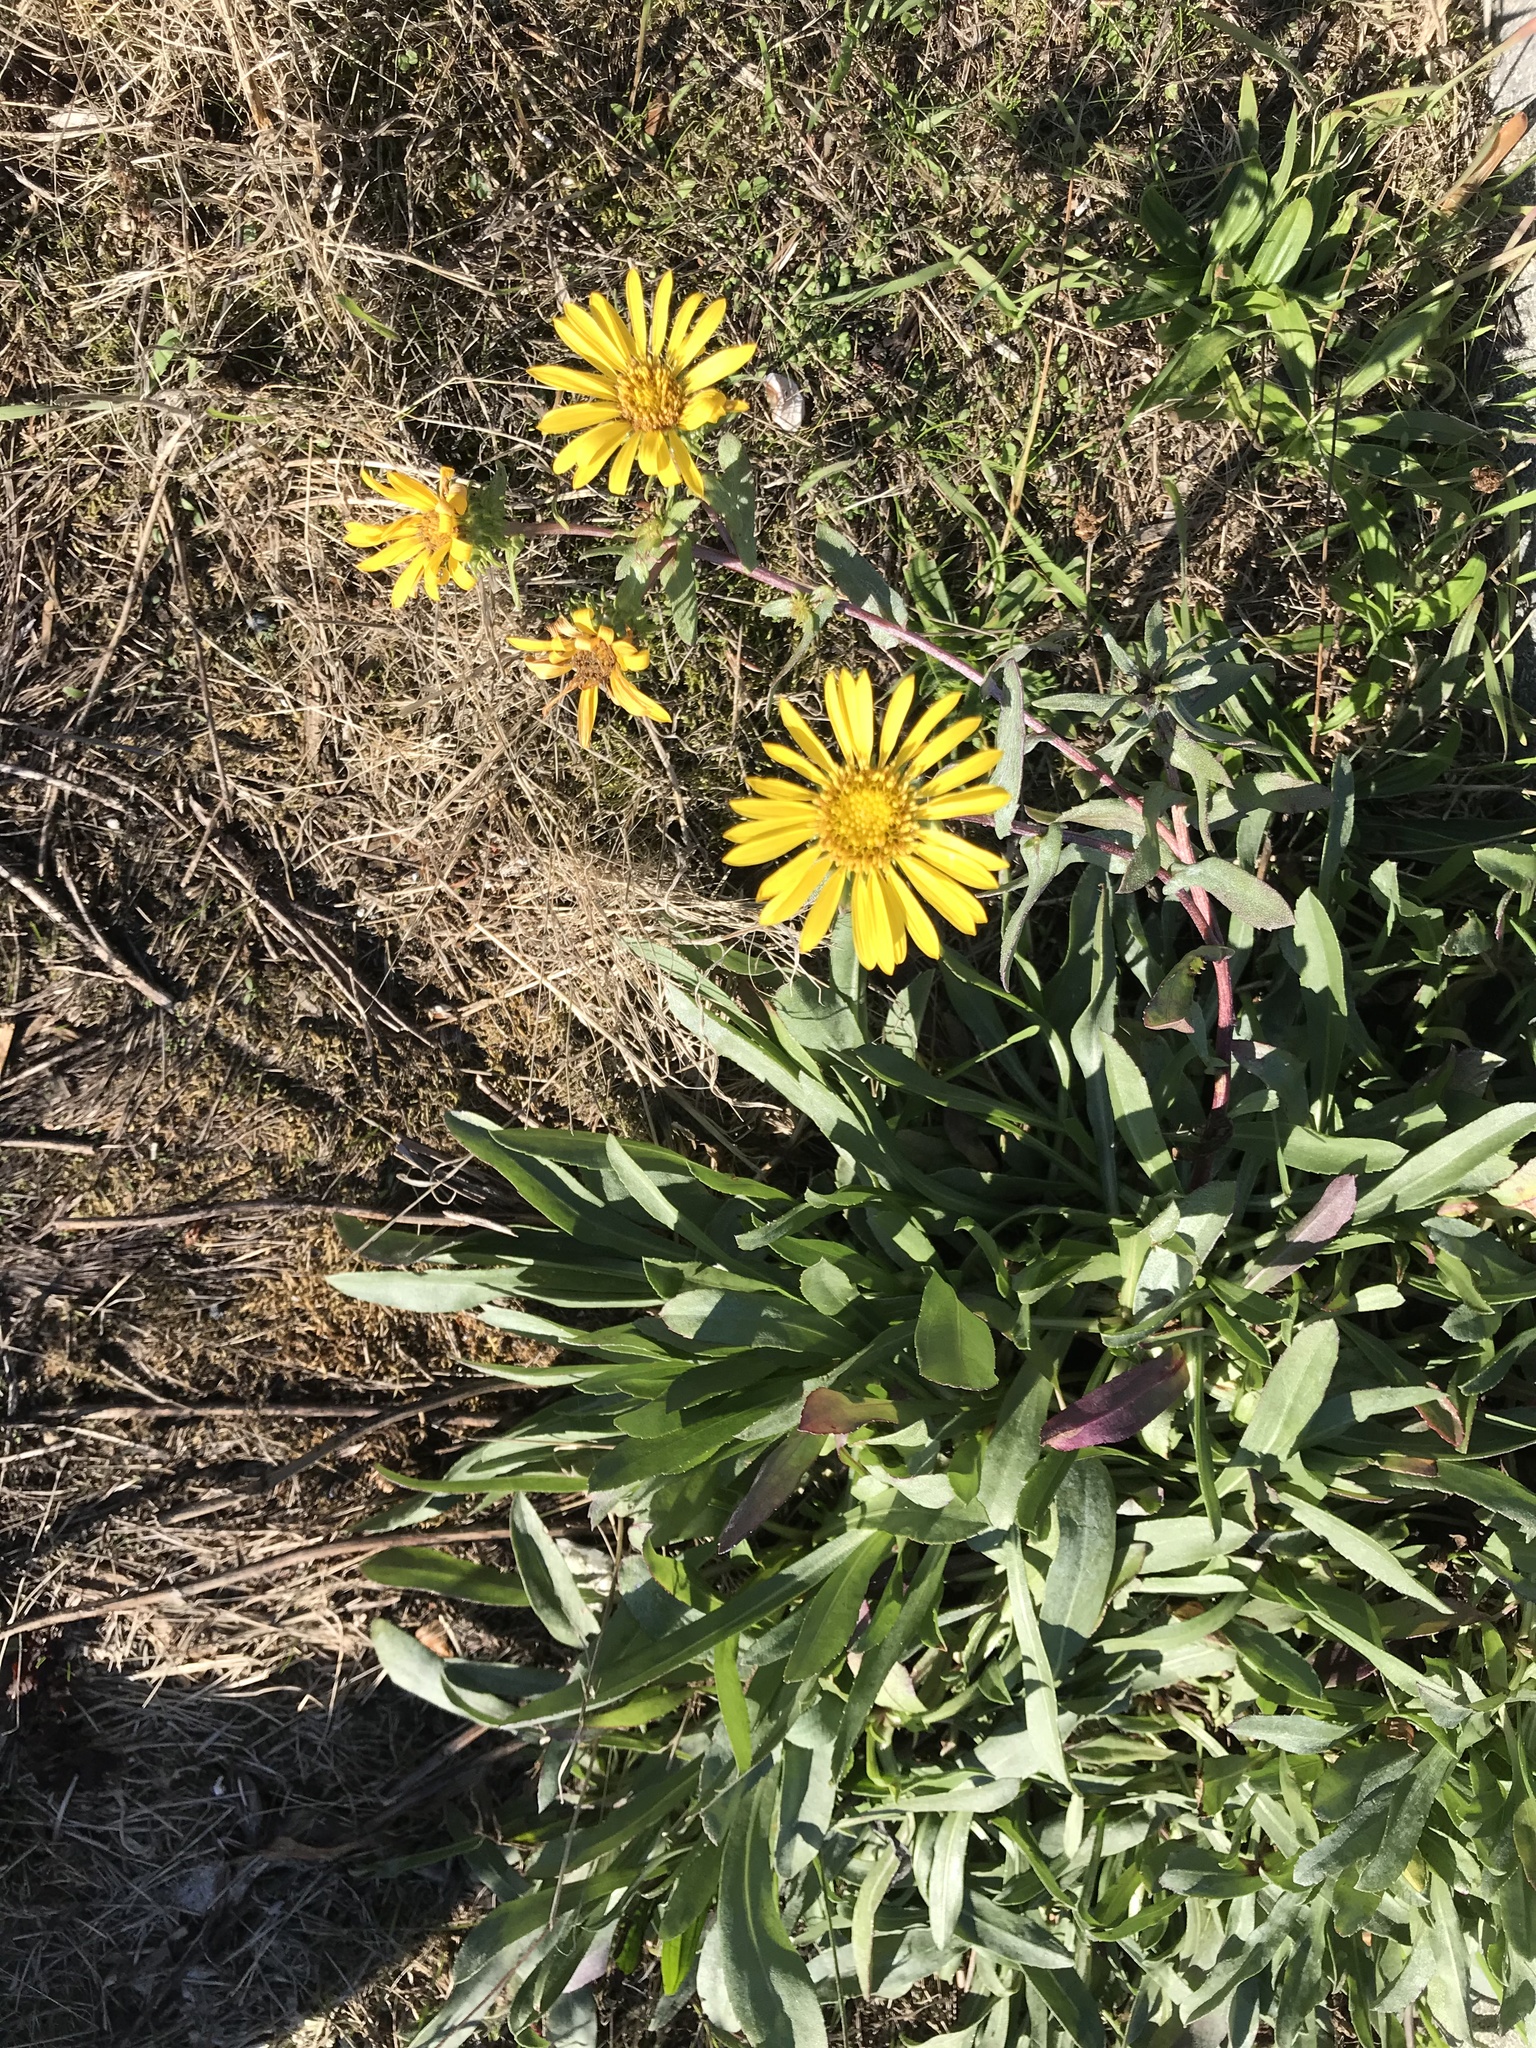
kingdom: Plantae
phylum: Tracheophyta
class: Magnoliopsida
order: Asterales
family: Asteraceae
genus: Grindelia
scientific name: Grindelia integrifolia
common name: Puget sound gumweed
